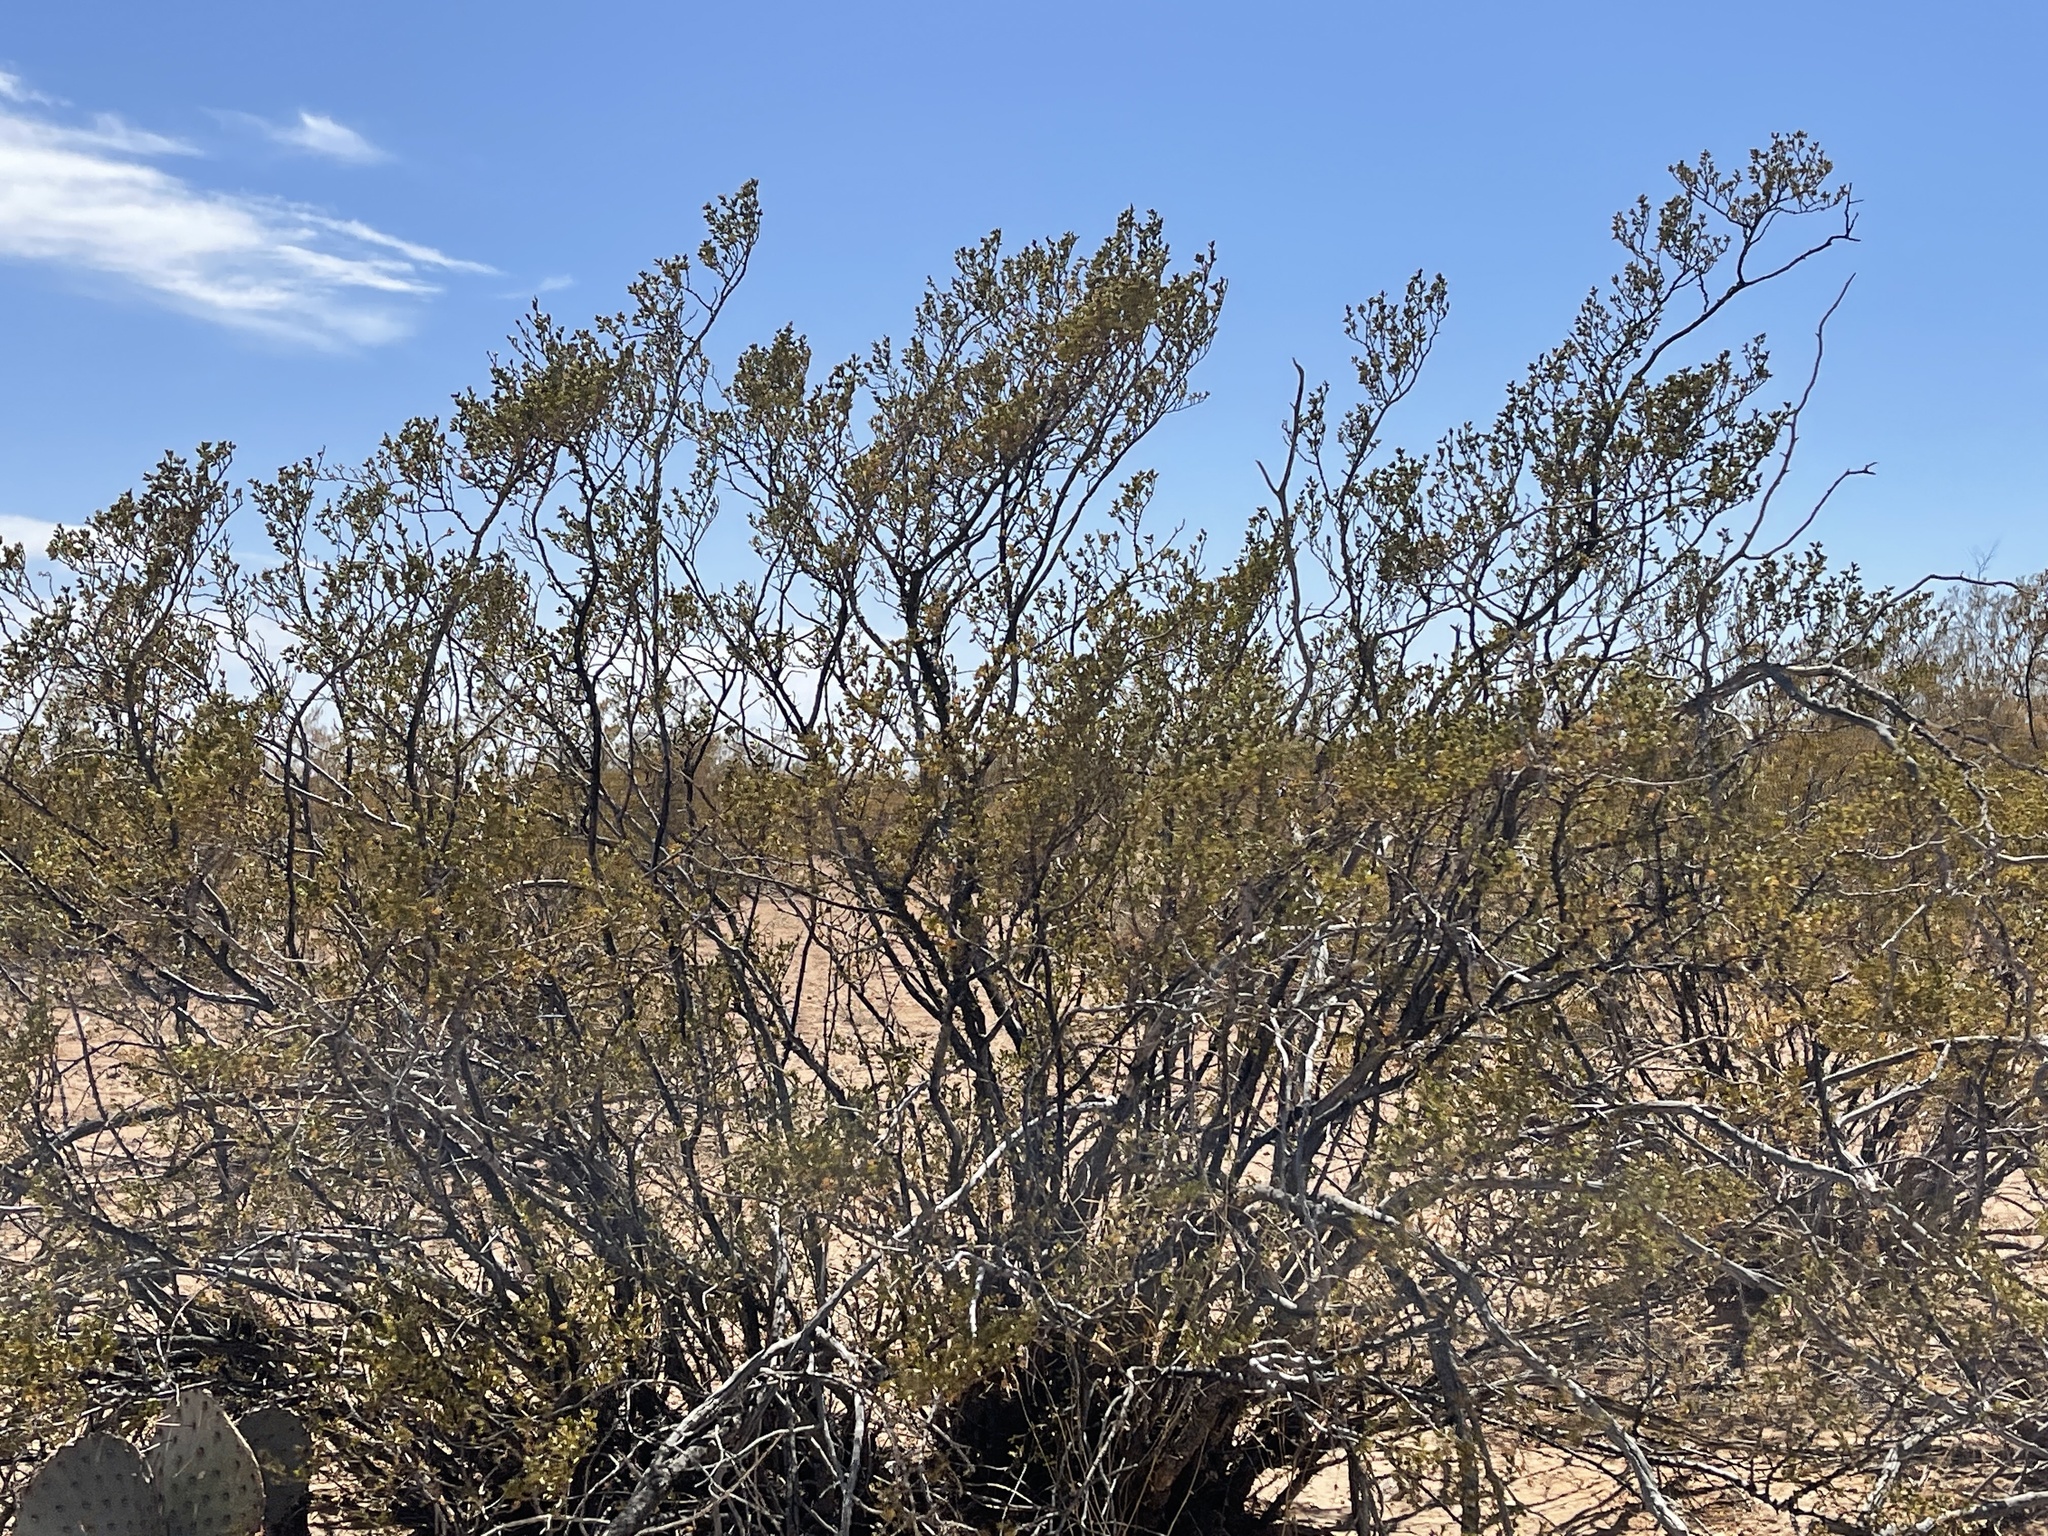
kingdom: Plantae
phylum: Tracheophyta
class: Magnoliopsida
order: Zygophyllales
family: Zygophyllaceae
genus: Larrea
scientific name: Larrea tridentata
